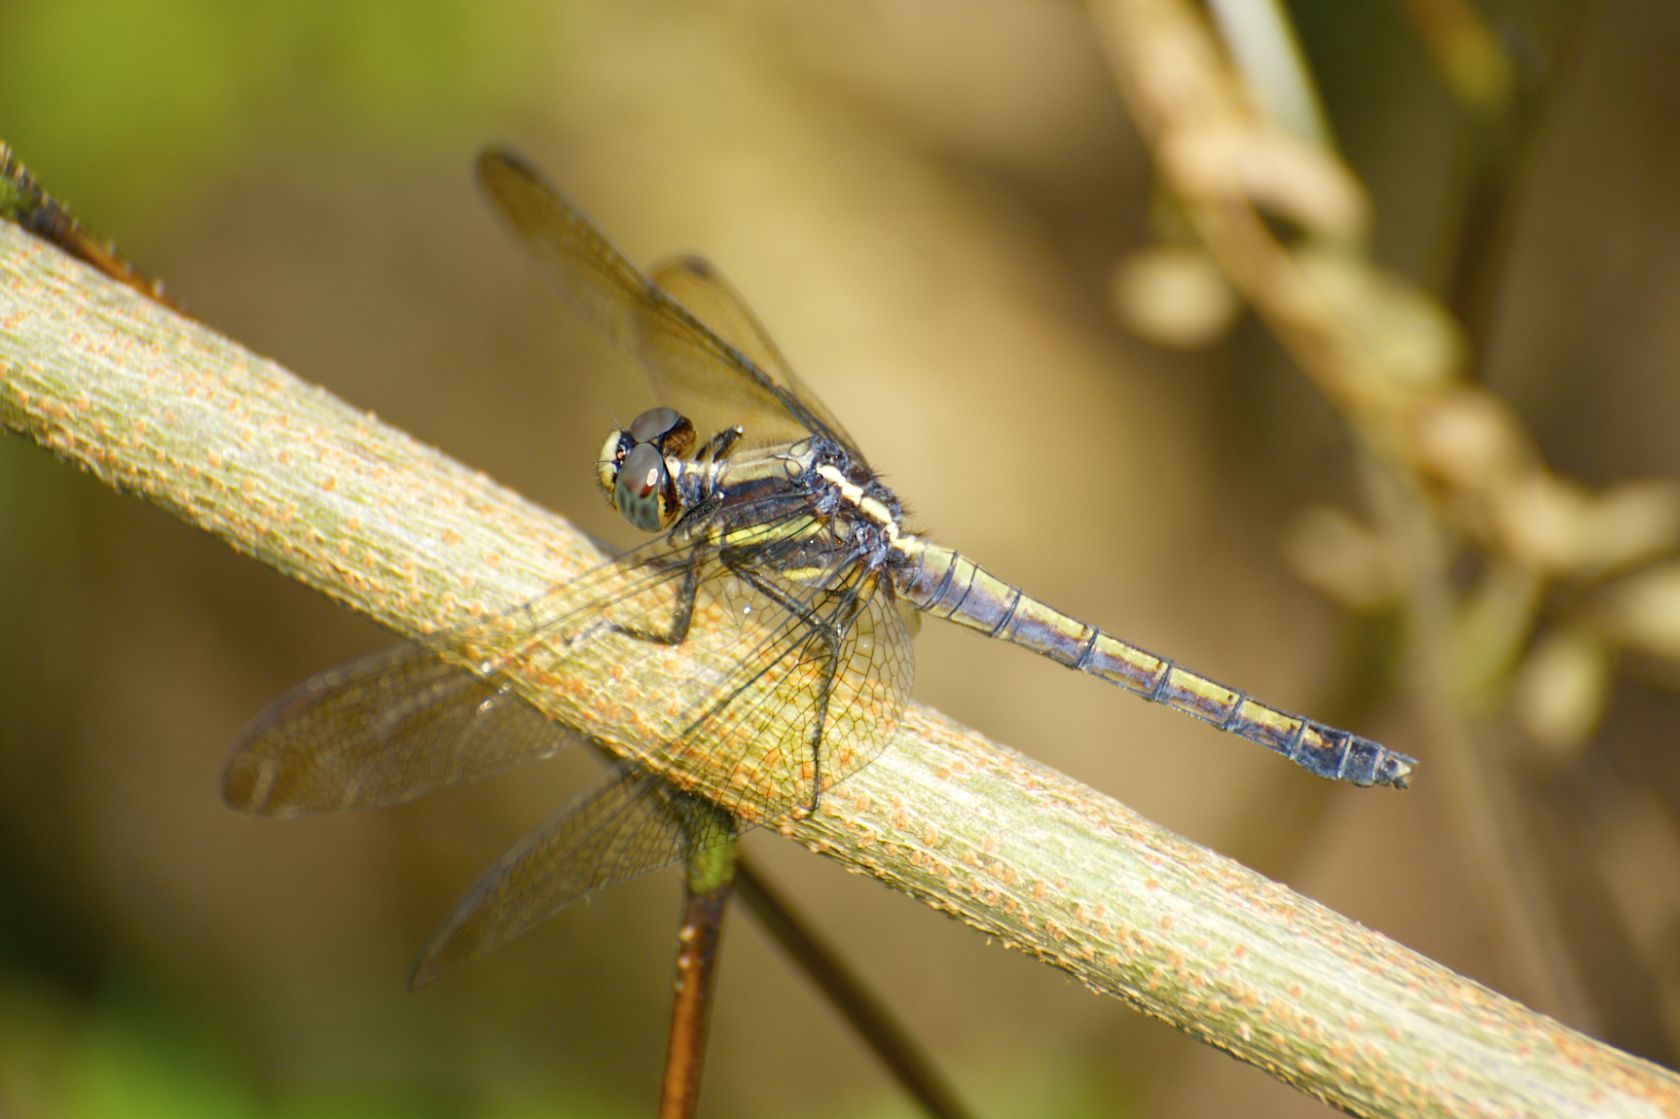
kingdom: Animalia
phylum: Arthropoda
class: Insecta
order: Odonata
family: Libellulidae
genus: Orthetrum
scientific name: Orthetrum glaucum
